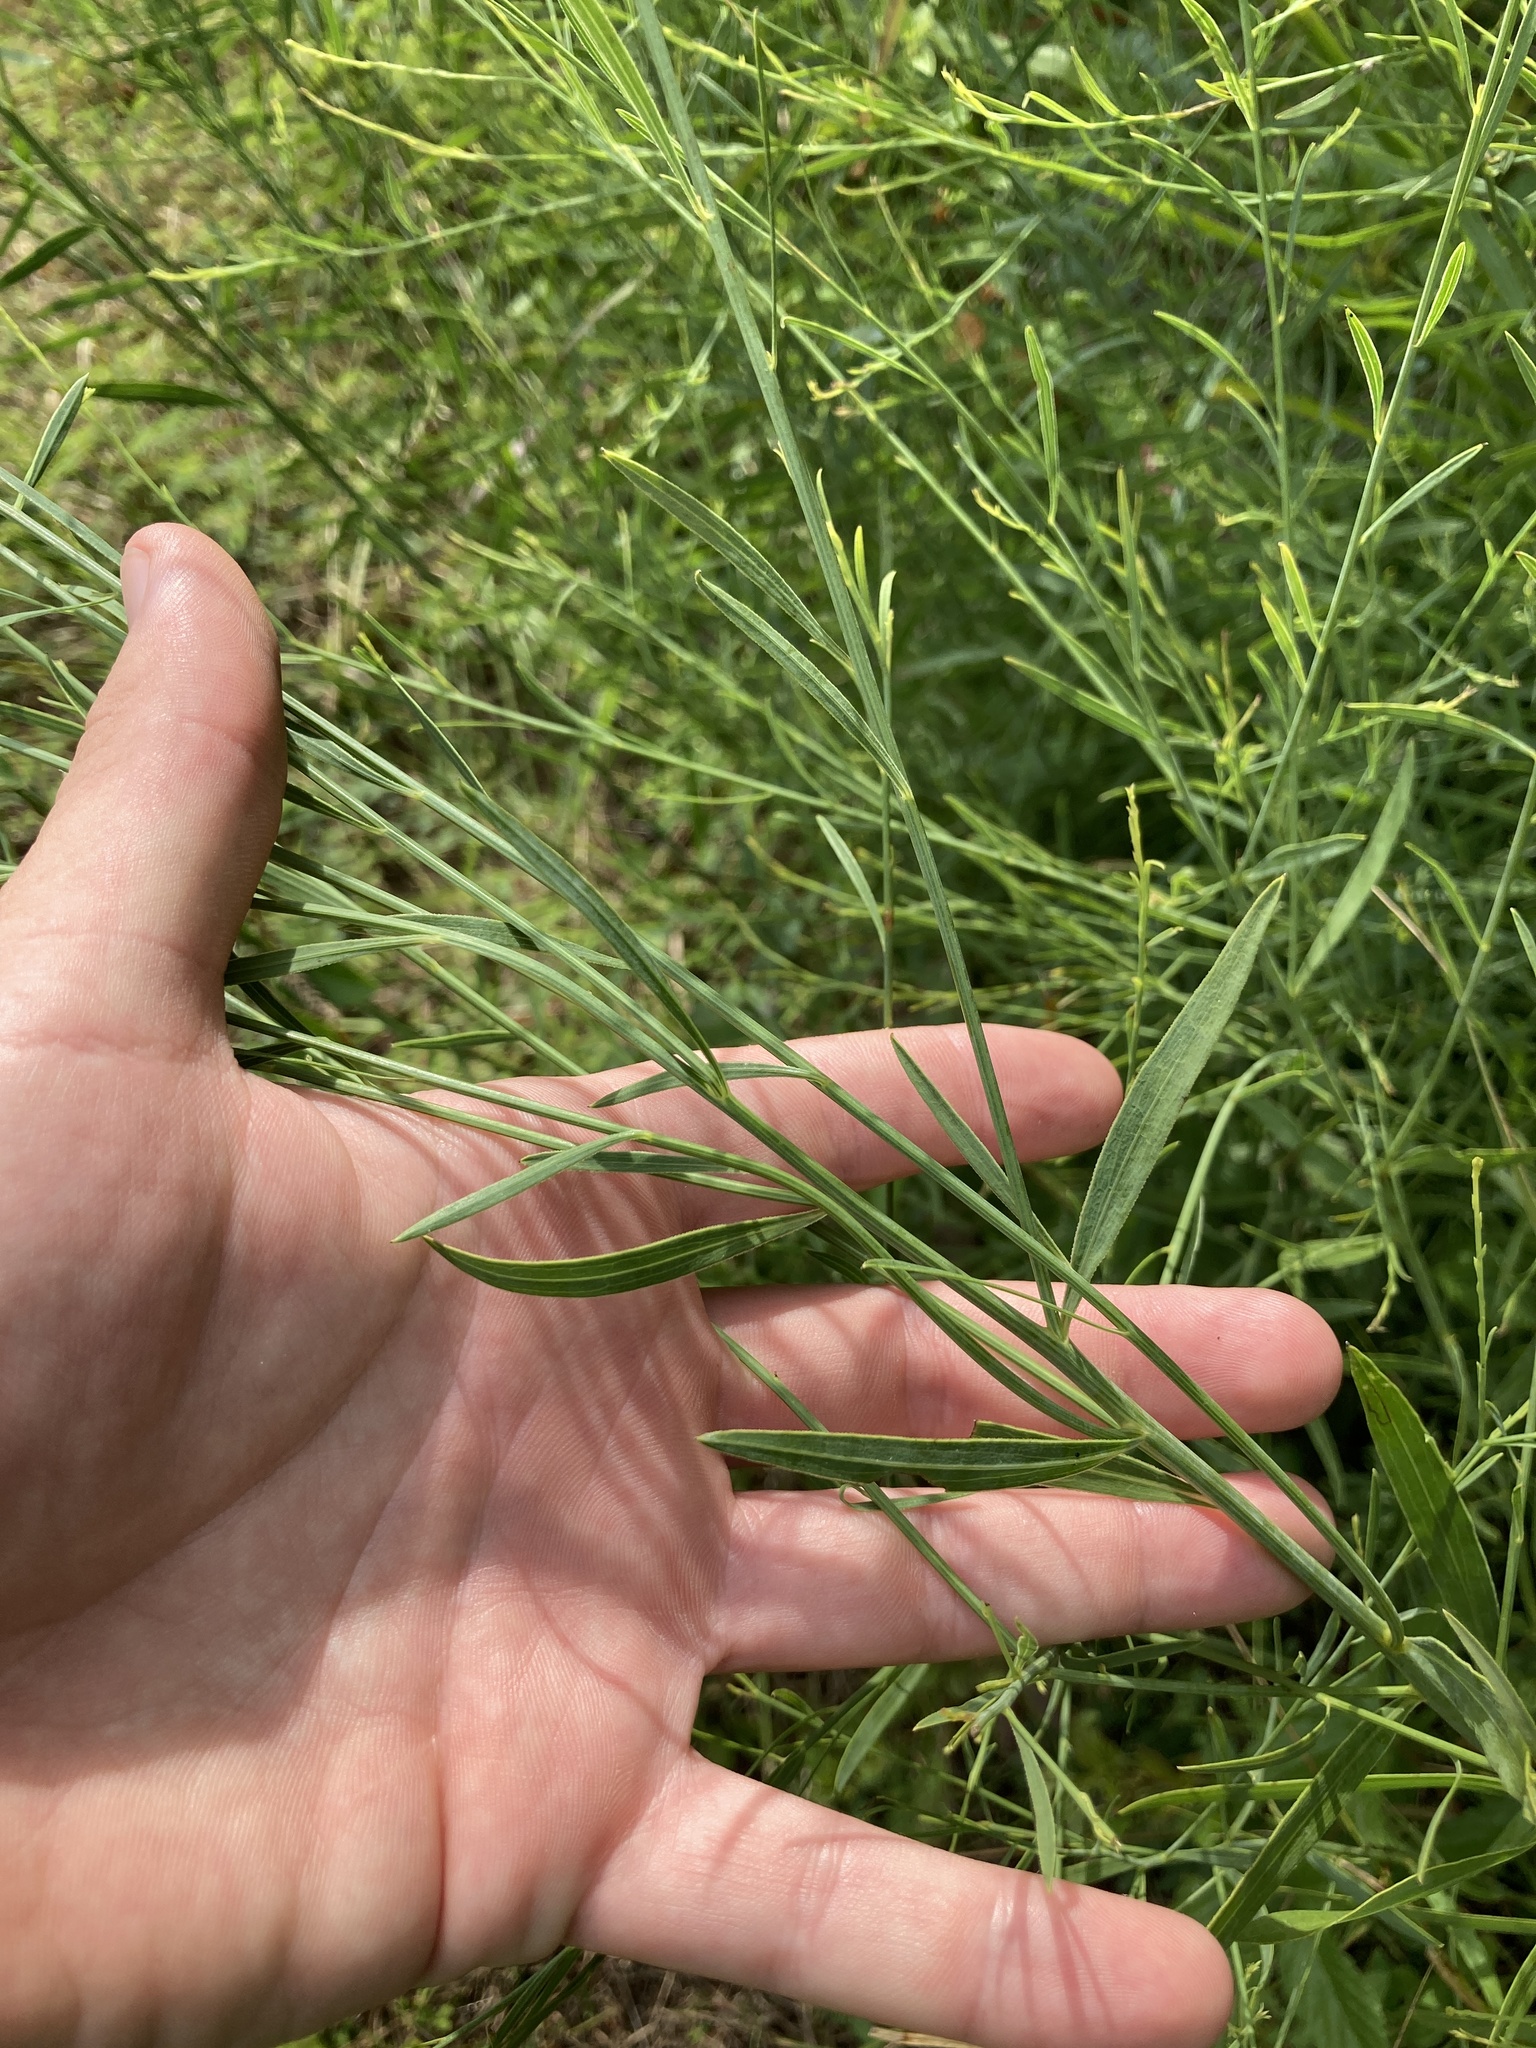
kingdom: Plantae
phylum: Tracheophyta
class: Magnoliopsida
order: Asterales
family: Asteraceae
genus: Boltonia
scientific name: Boltonia diffusa
